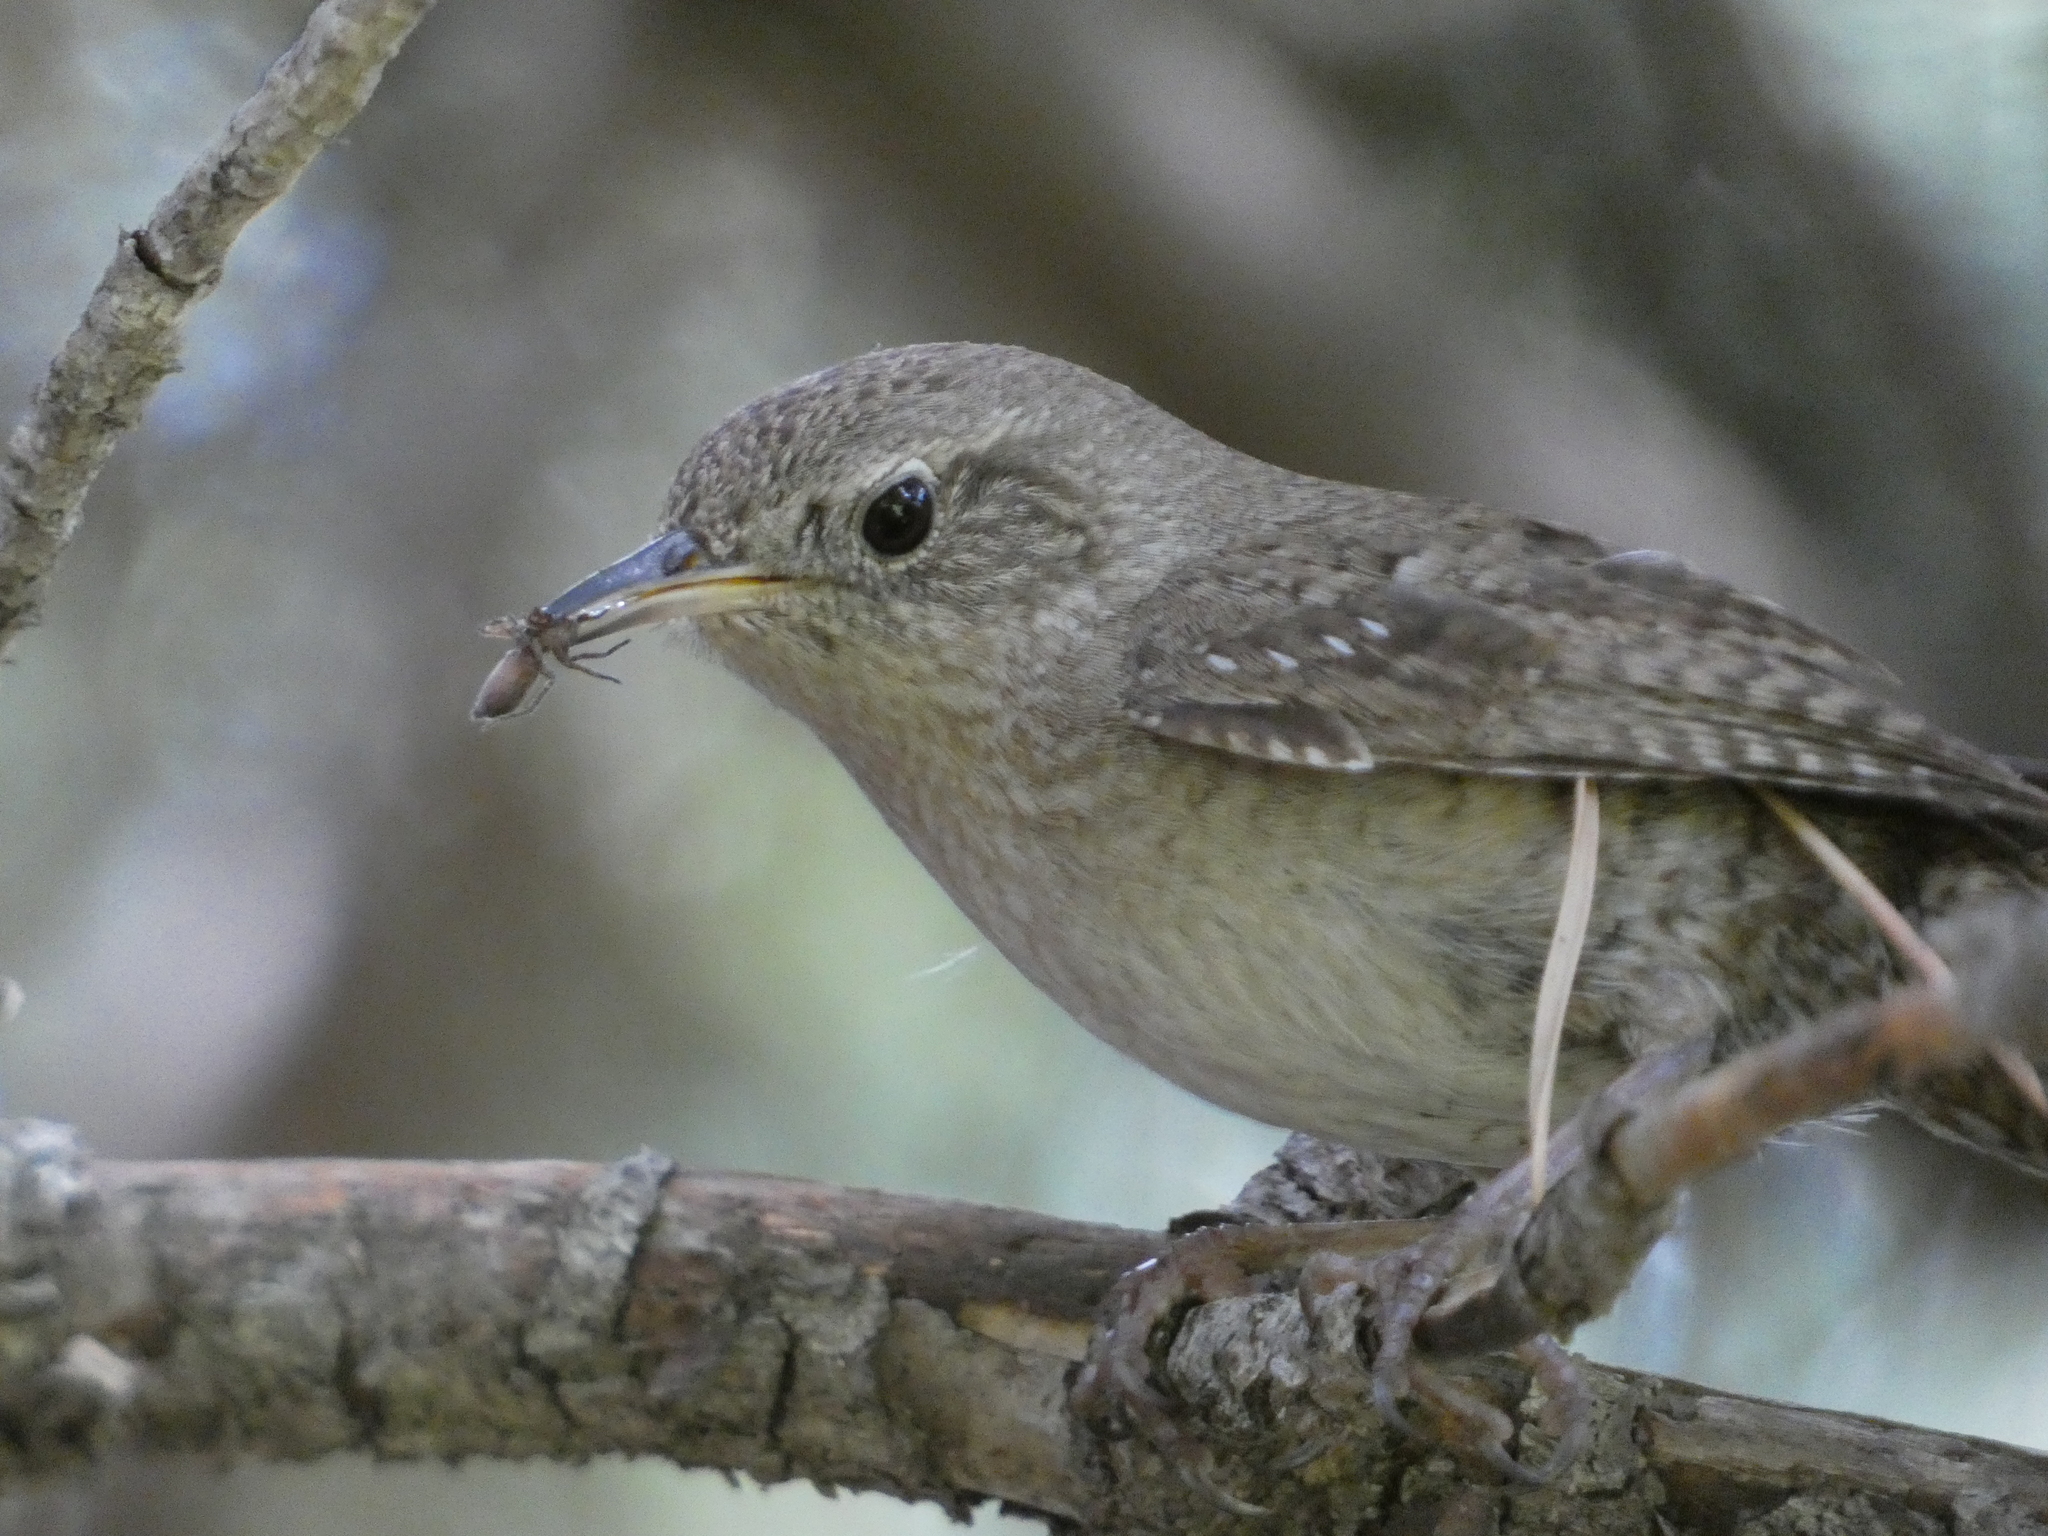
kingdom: Animalia
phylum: Chordata
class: Aves
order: Passeriformes
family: Troglodytidae
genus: Troglodytes
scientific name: Troglodytes aedon
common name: House wren
